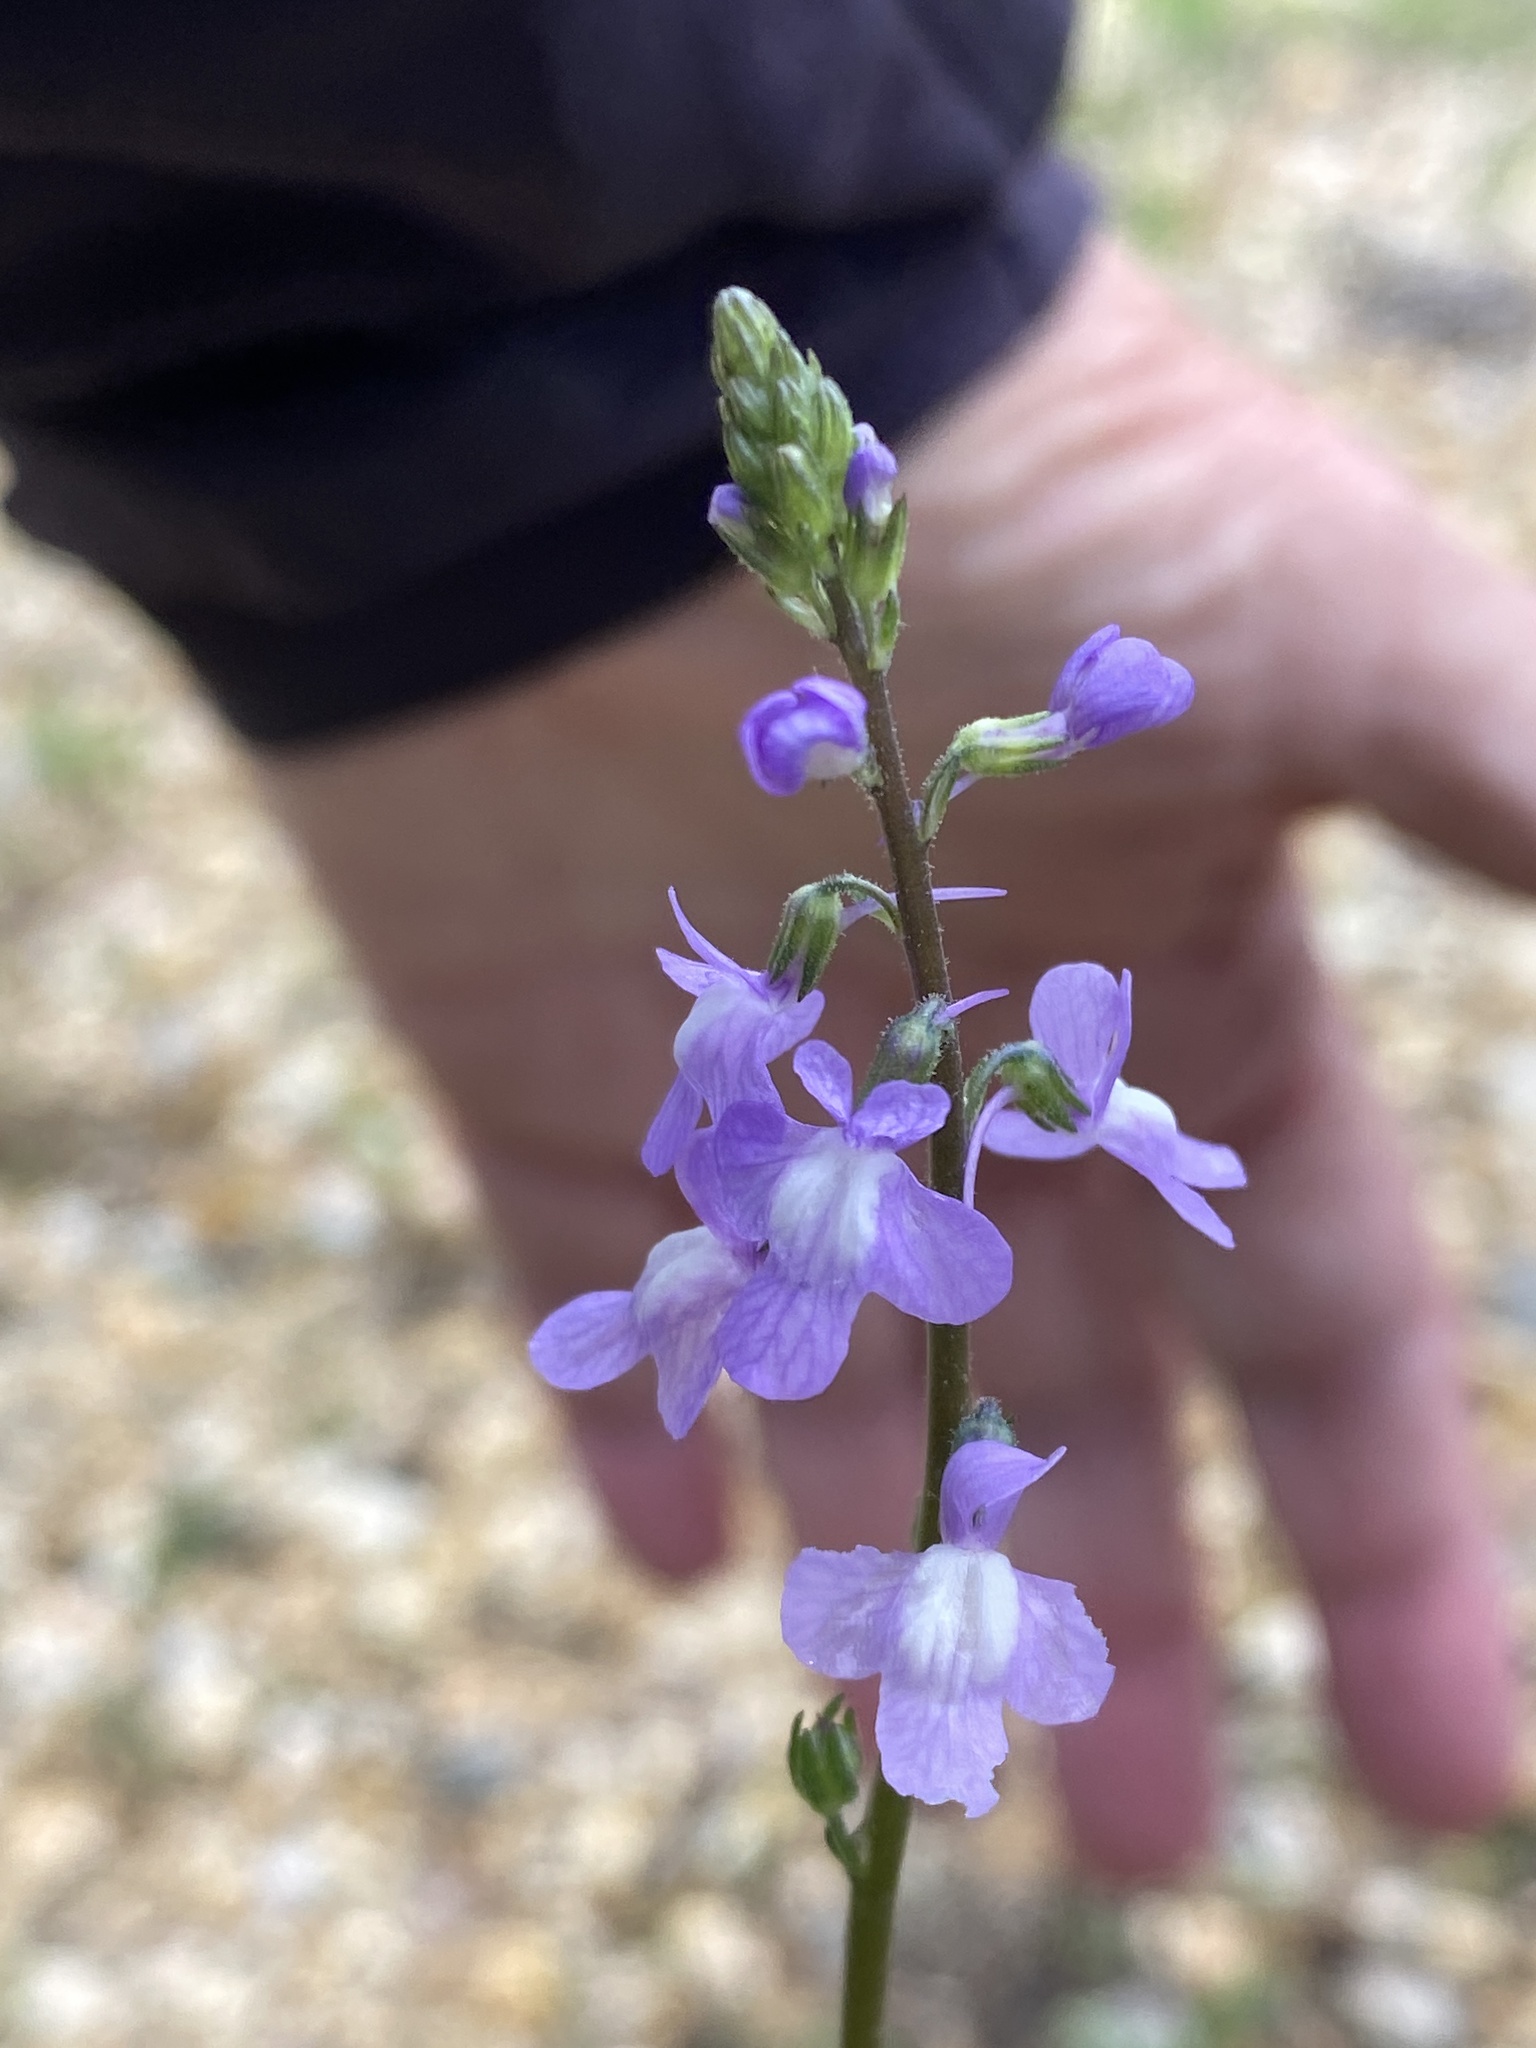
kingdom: Plantae
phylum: Tracheophyta
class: Magnoliopsida
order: Lamiales
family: Plantaginaceae
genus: Nuttallanthus
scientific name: Nuttallanthus canadensis
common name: Blue toadflax
